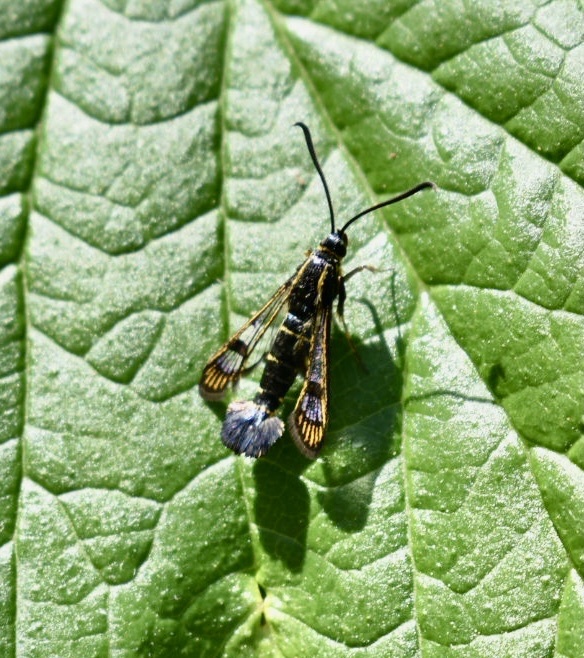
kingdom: Animalia
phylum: Arthropoda
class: Insecta
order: Lepidoptera
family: Sesiidae
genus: Synanthedon
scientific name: Synanthedon tipuliformis
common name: Currant clearwing
